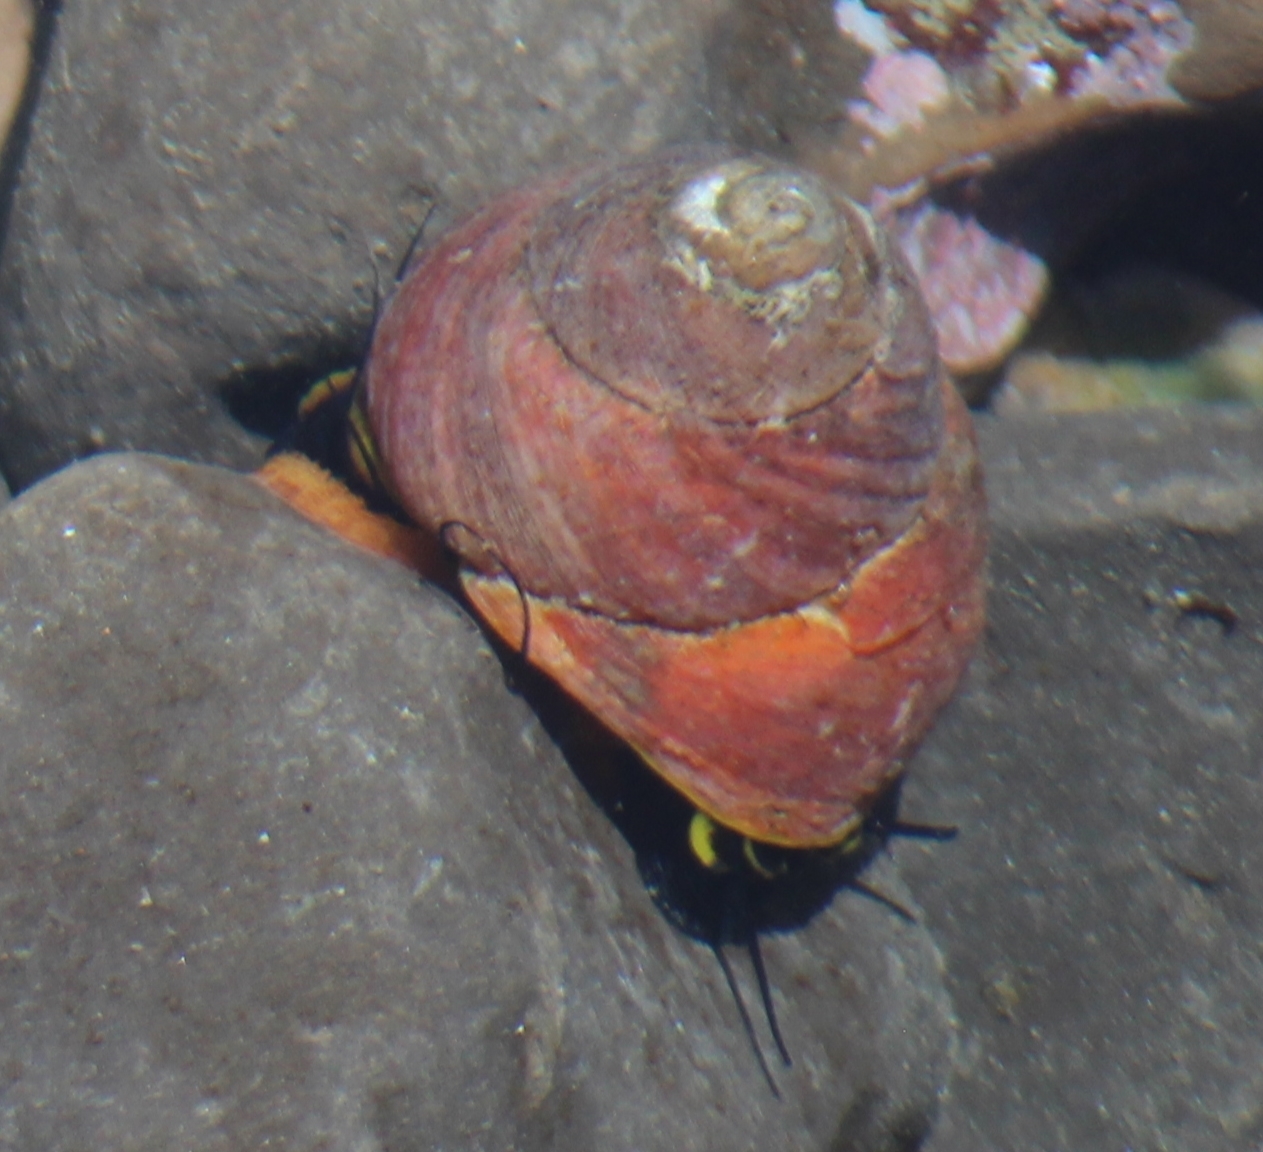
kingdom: Animalia
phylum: Mollusca
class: Gastropoda
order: Trochida
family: Tegulidae
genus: Tegula
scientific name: Tegula brunnea
